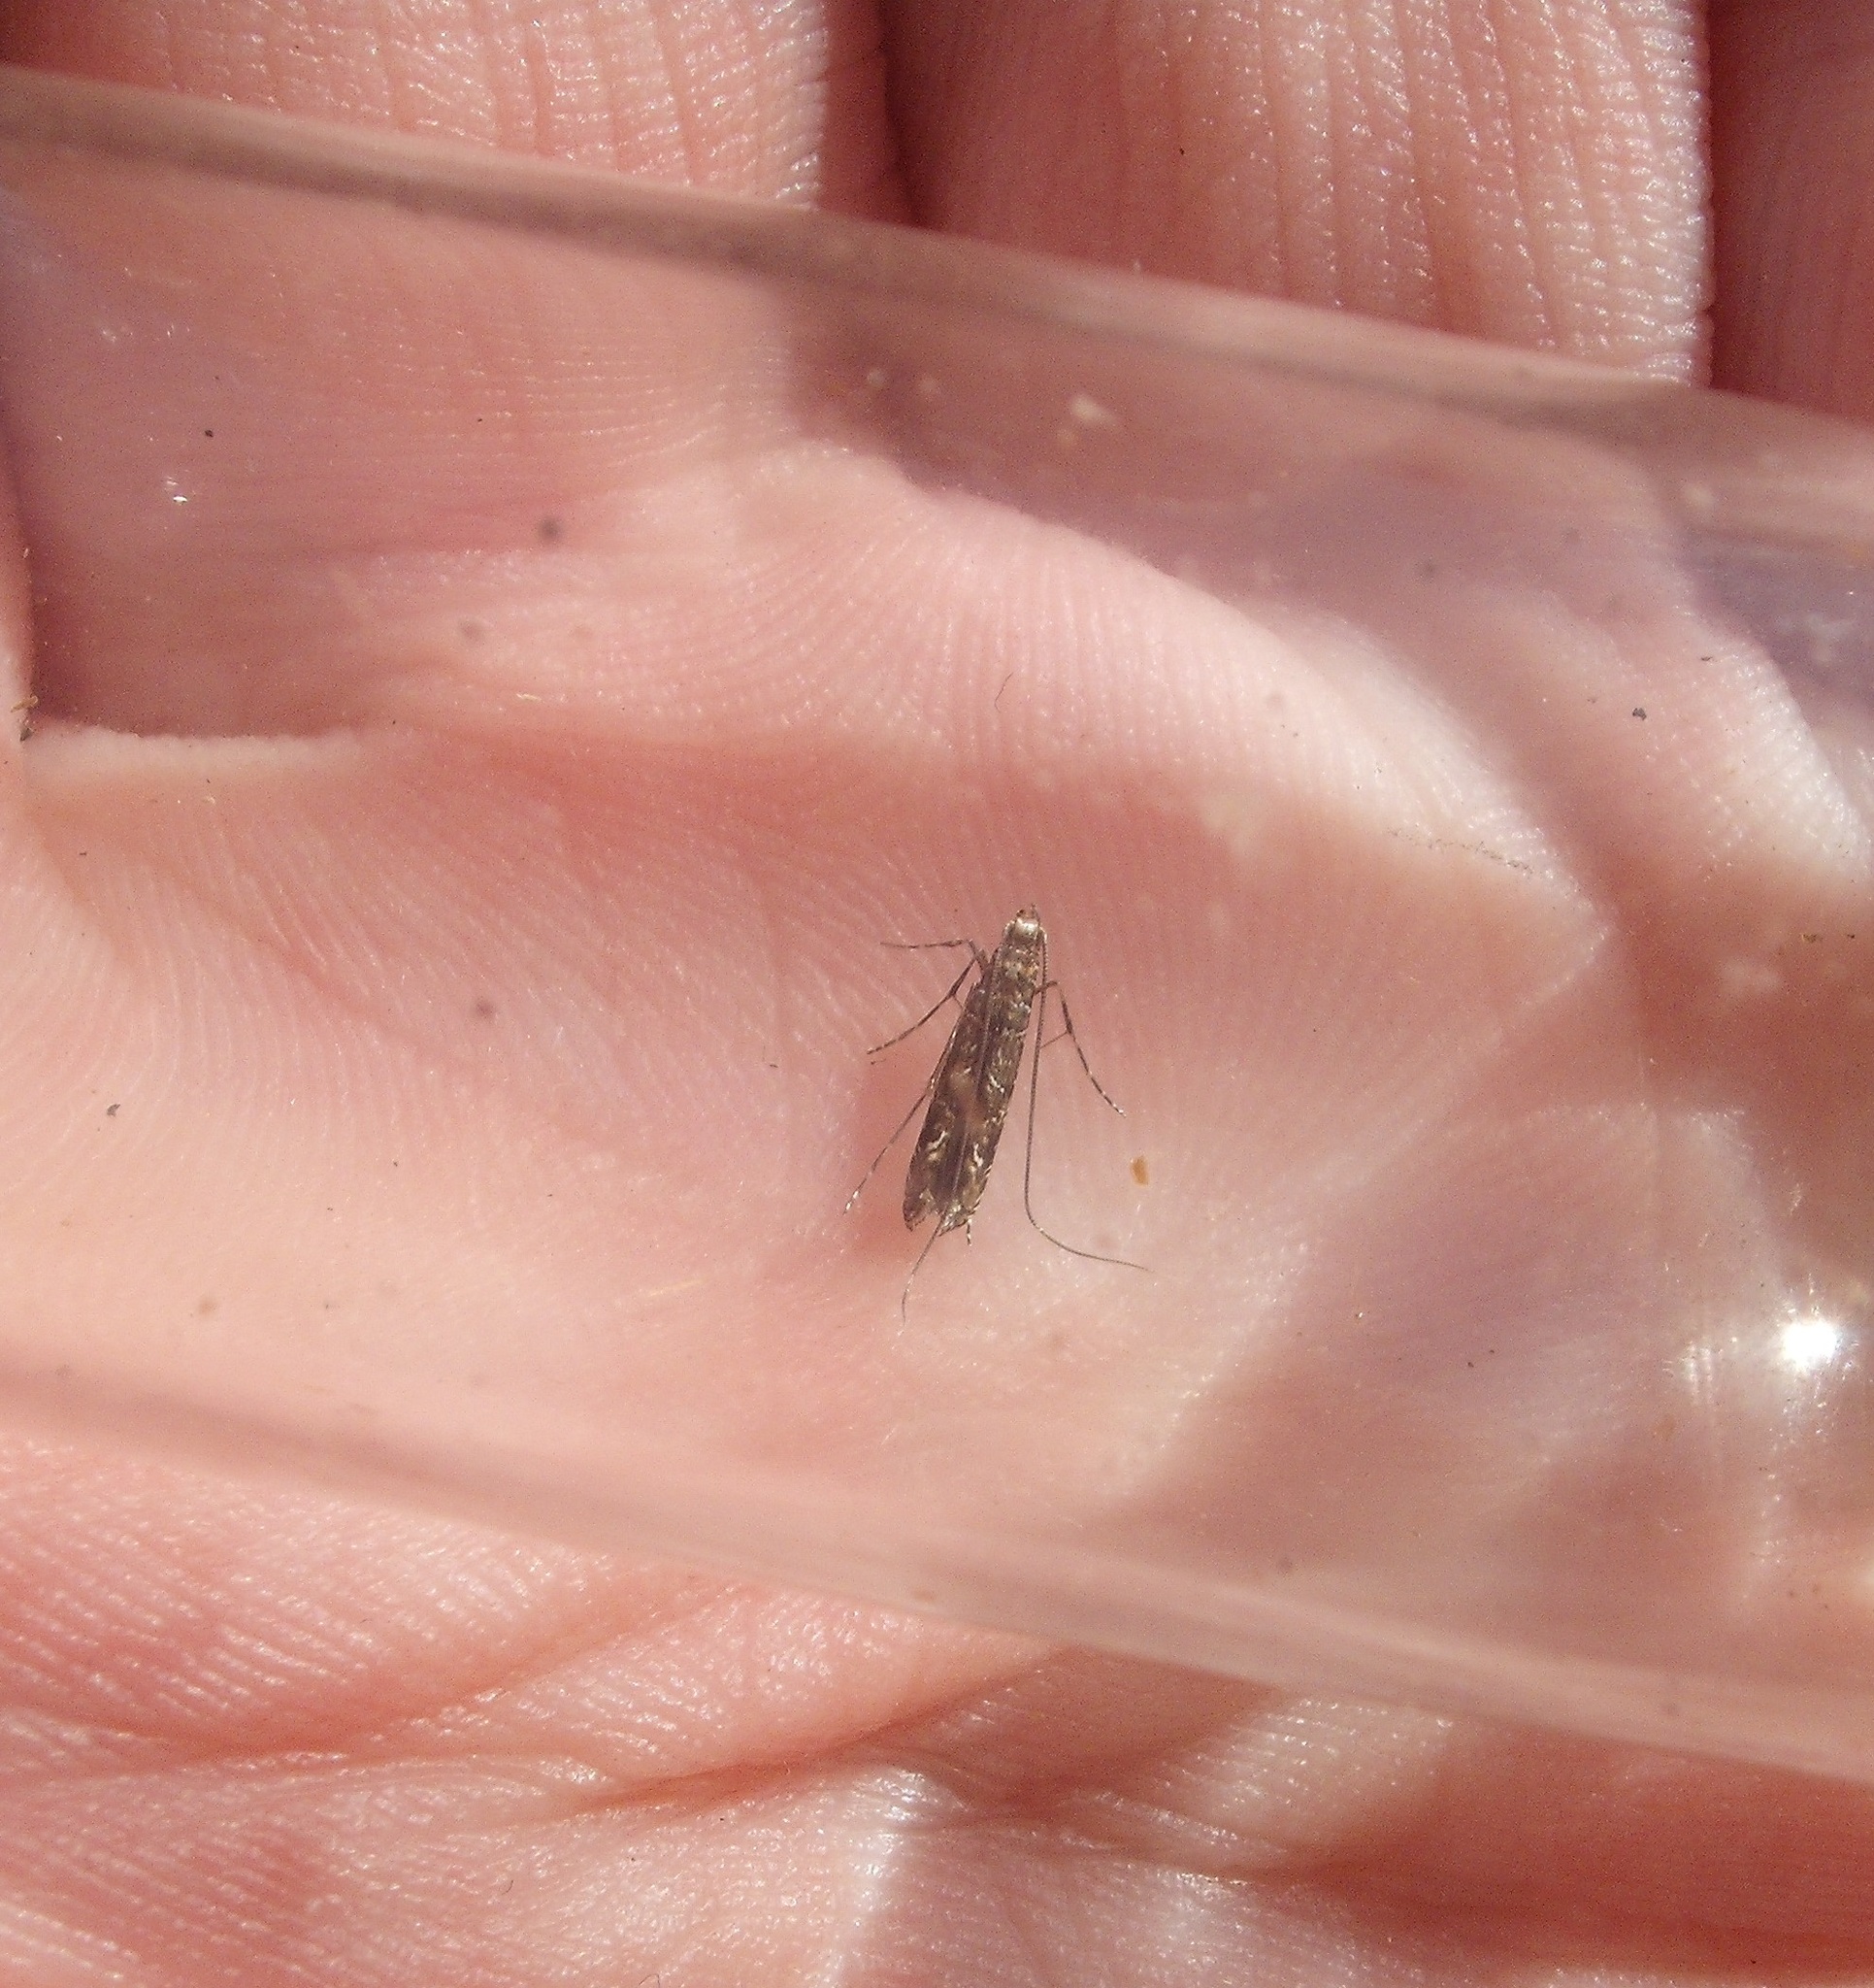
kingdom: Animalia
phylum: Arthropoda
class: Insecta
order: Lepidoptera
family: Gracillariidae
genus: Conopomorpha
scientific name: Conopomorpha cyanospila
